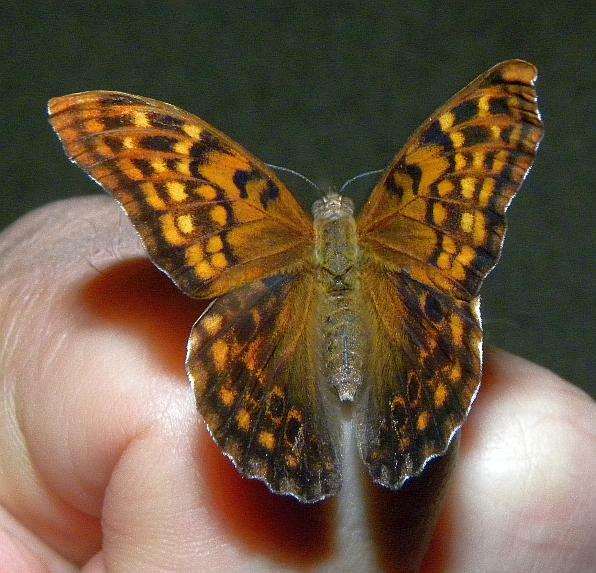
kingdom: Animalia
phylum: Arthropoda
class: Insecta
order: Lepidoptera
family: Nymphalidae
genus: Asterocampa
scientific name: Asterocampa clyton
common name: Tawny emperor
